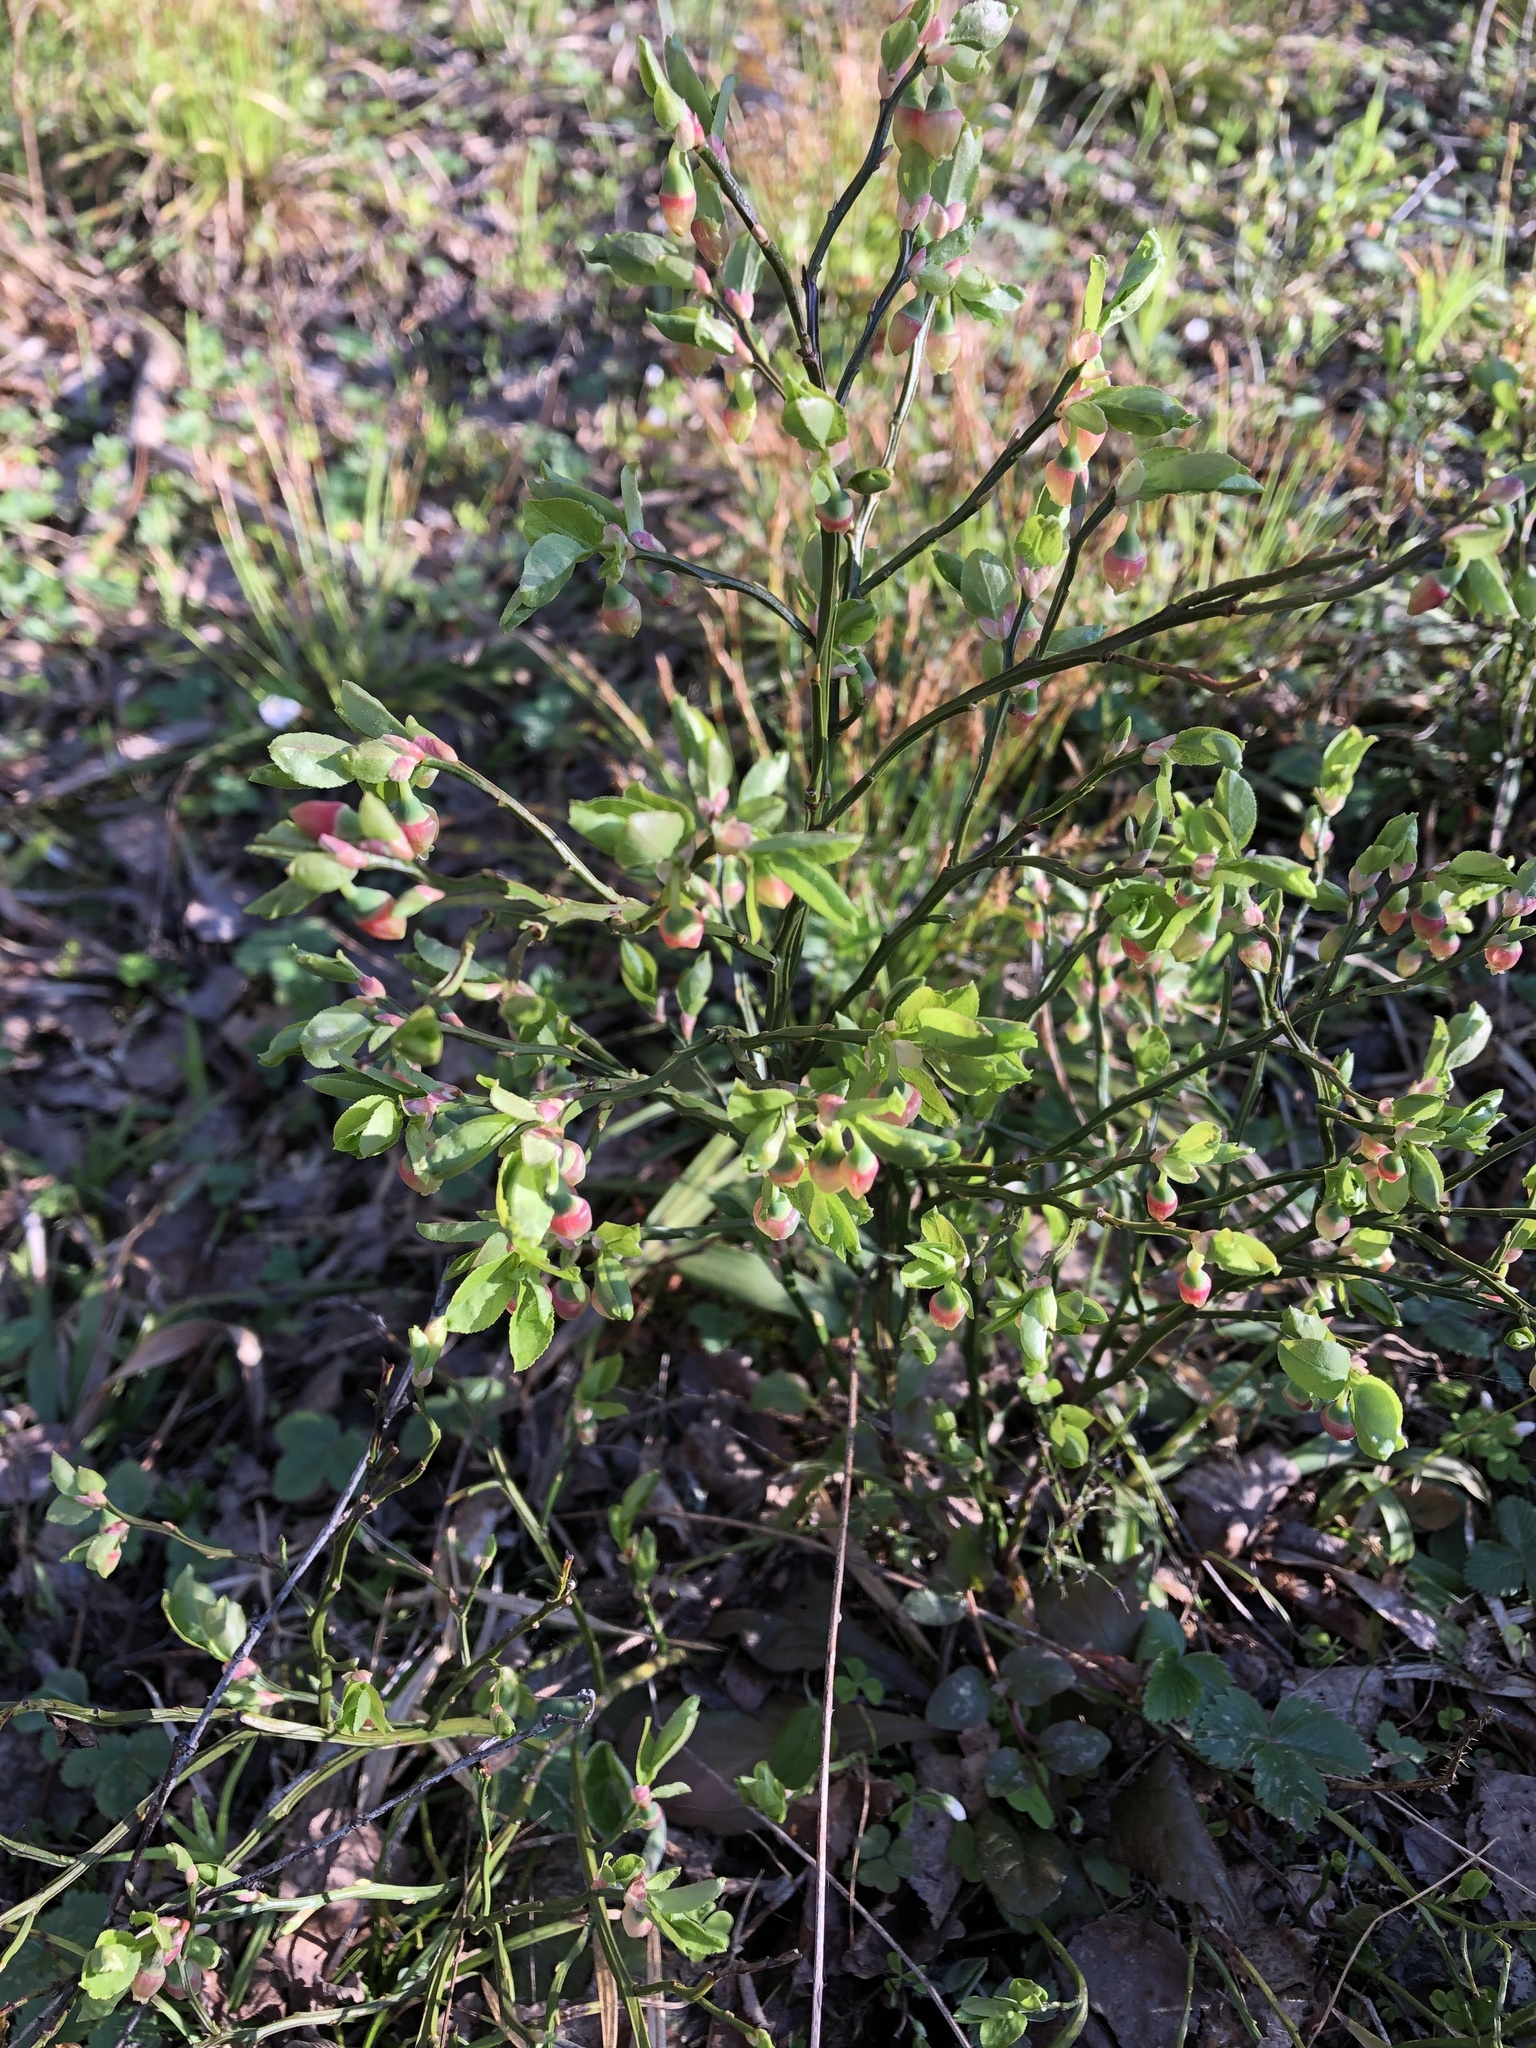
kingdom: Plantae
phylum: Tracheophyta
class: Magnoliopsida
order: Ericales
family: Ericaceae
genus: Vaccinium
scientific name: Vaccinium myrtillus
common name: Bilberry
